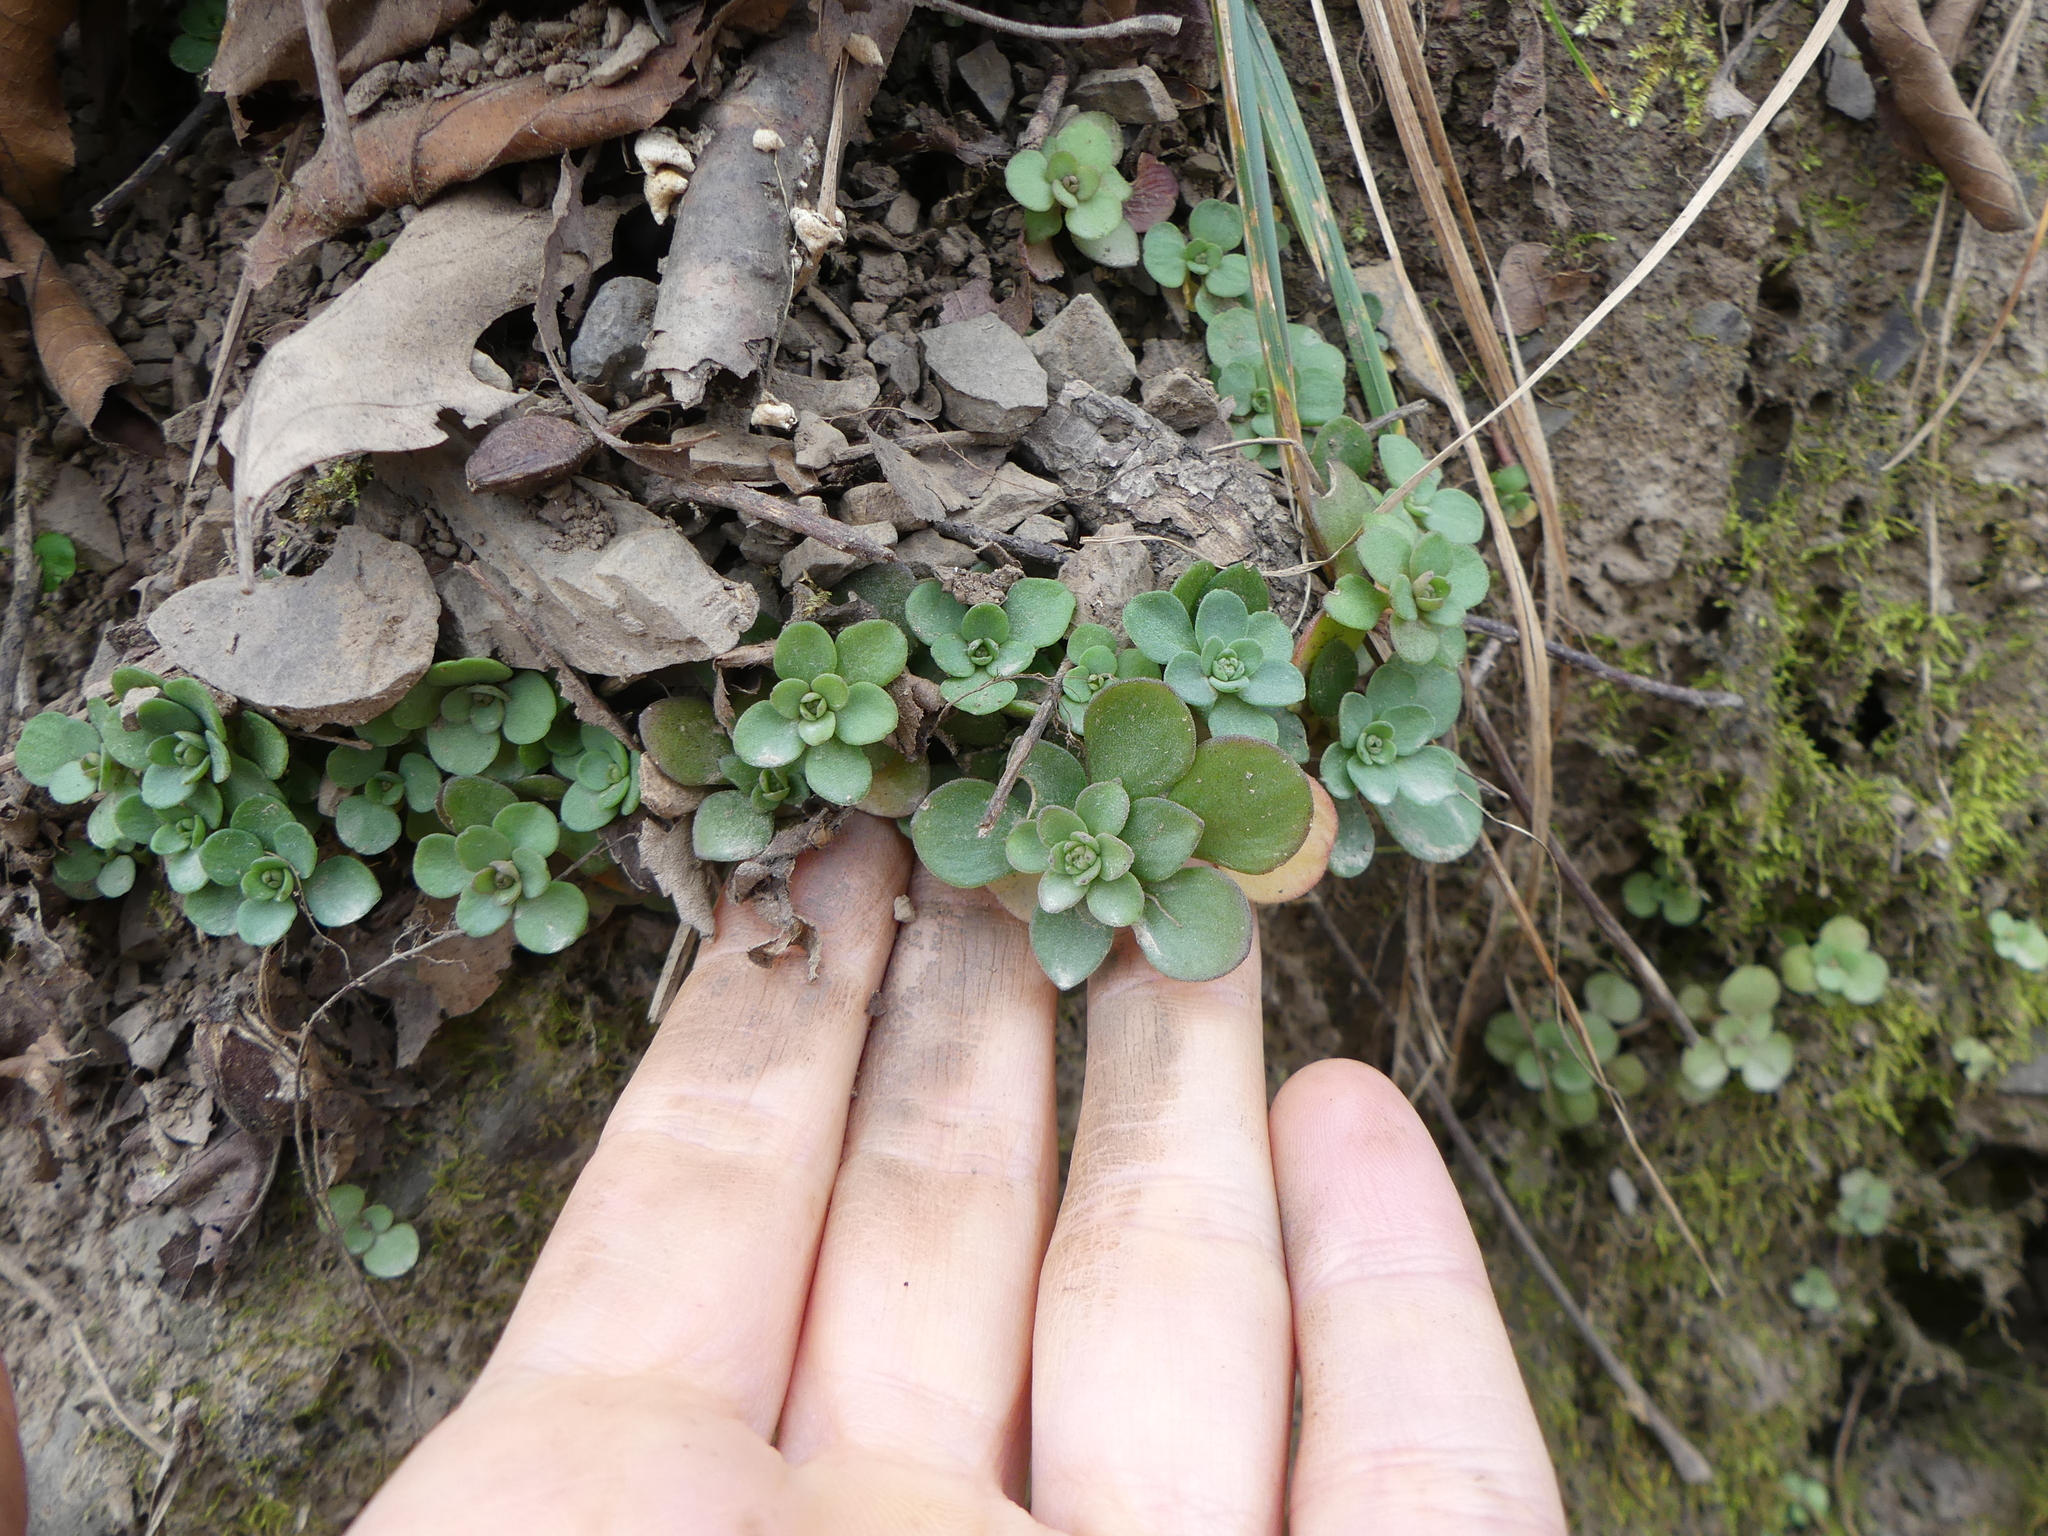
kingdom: Plantae
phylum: Tracheophyta
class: Magnoliopsida
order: Saxifragales
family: Crassulaceae
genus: Sedum
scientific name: Sedum ternatum
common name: Wild stonecrop
